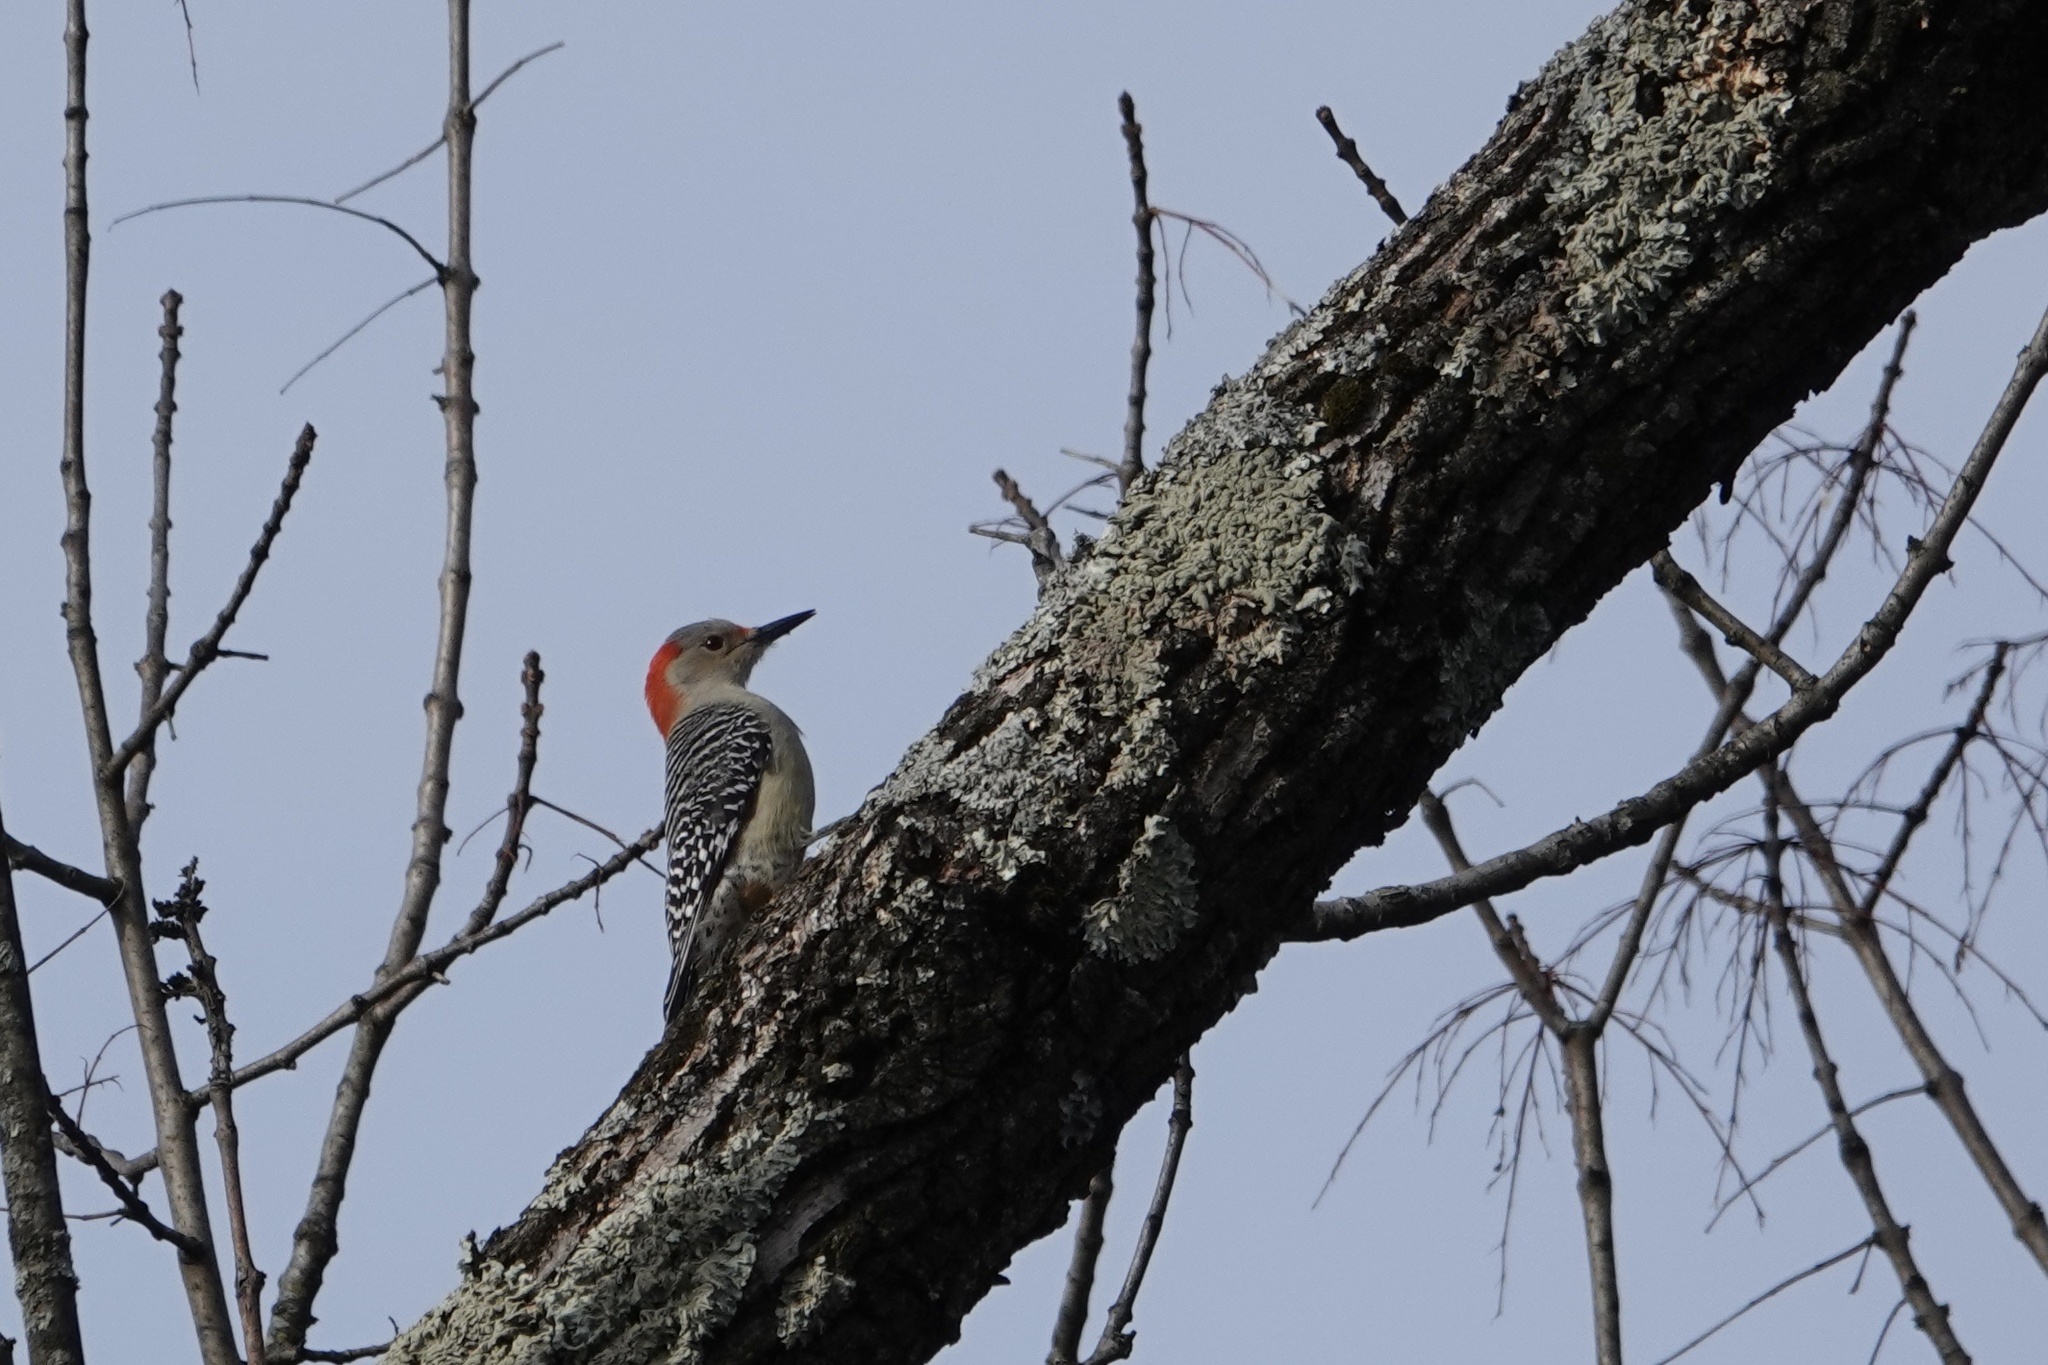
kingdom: Animalia
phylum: Chordata
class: Aves
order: Piciformes
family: Picidae
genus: Melanerpes
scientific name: Melanerpes carolinus
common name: Red-bellied woodpecker
